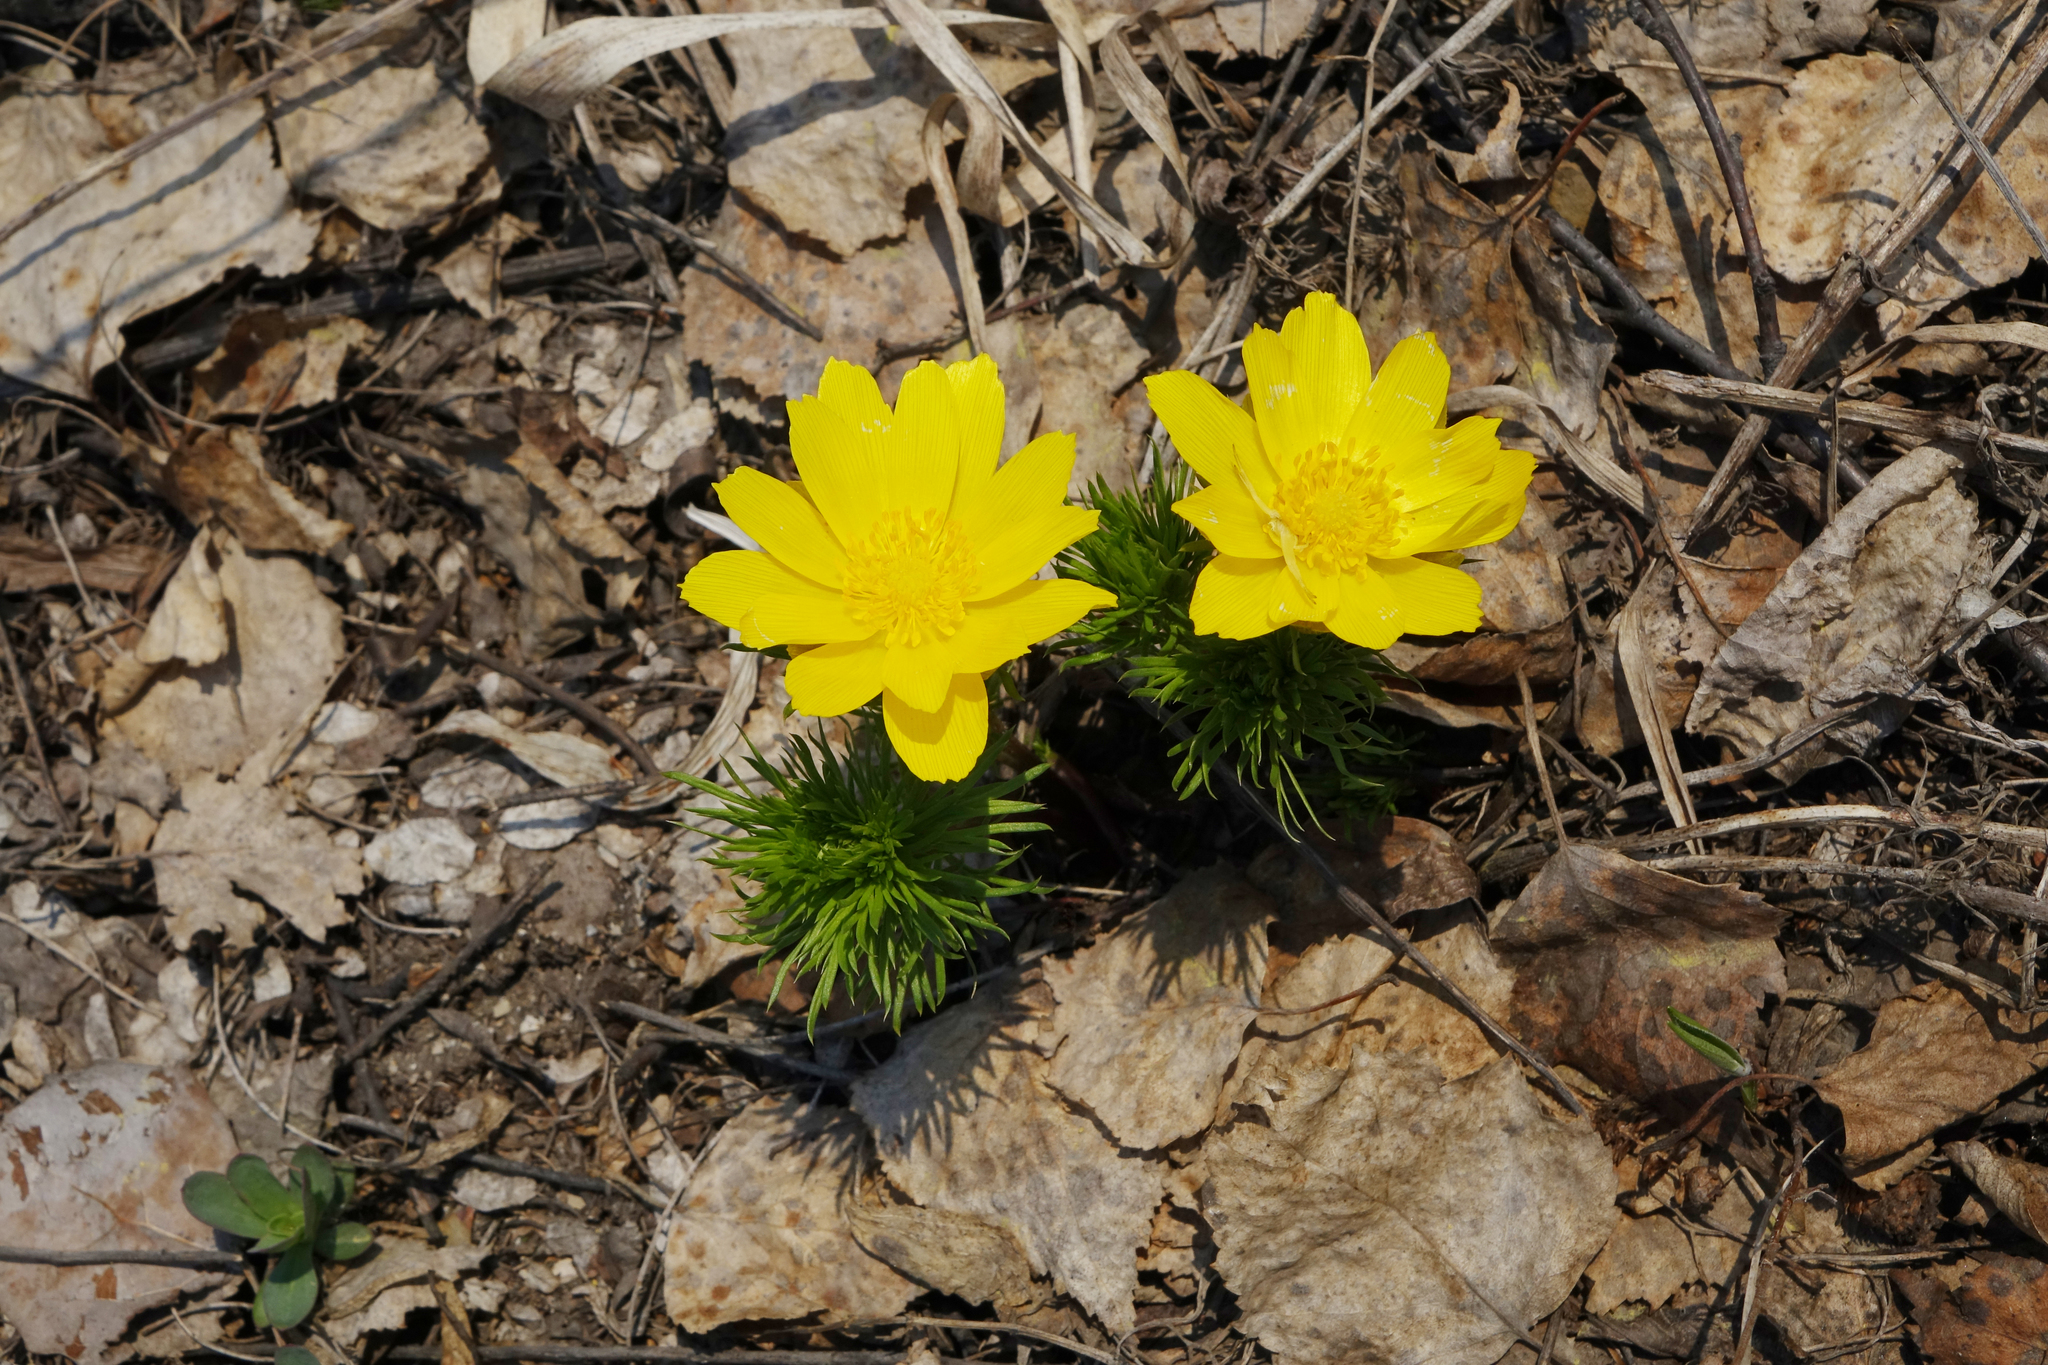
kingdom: Plantae
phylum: Tracheophyta
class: Magnoliopsida
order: Ranunculales
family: Ranunculaceae
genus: Adonis
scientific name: Adonis vernalis
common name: Yellow pheasants-eye
